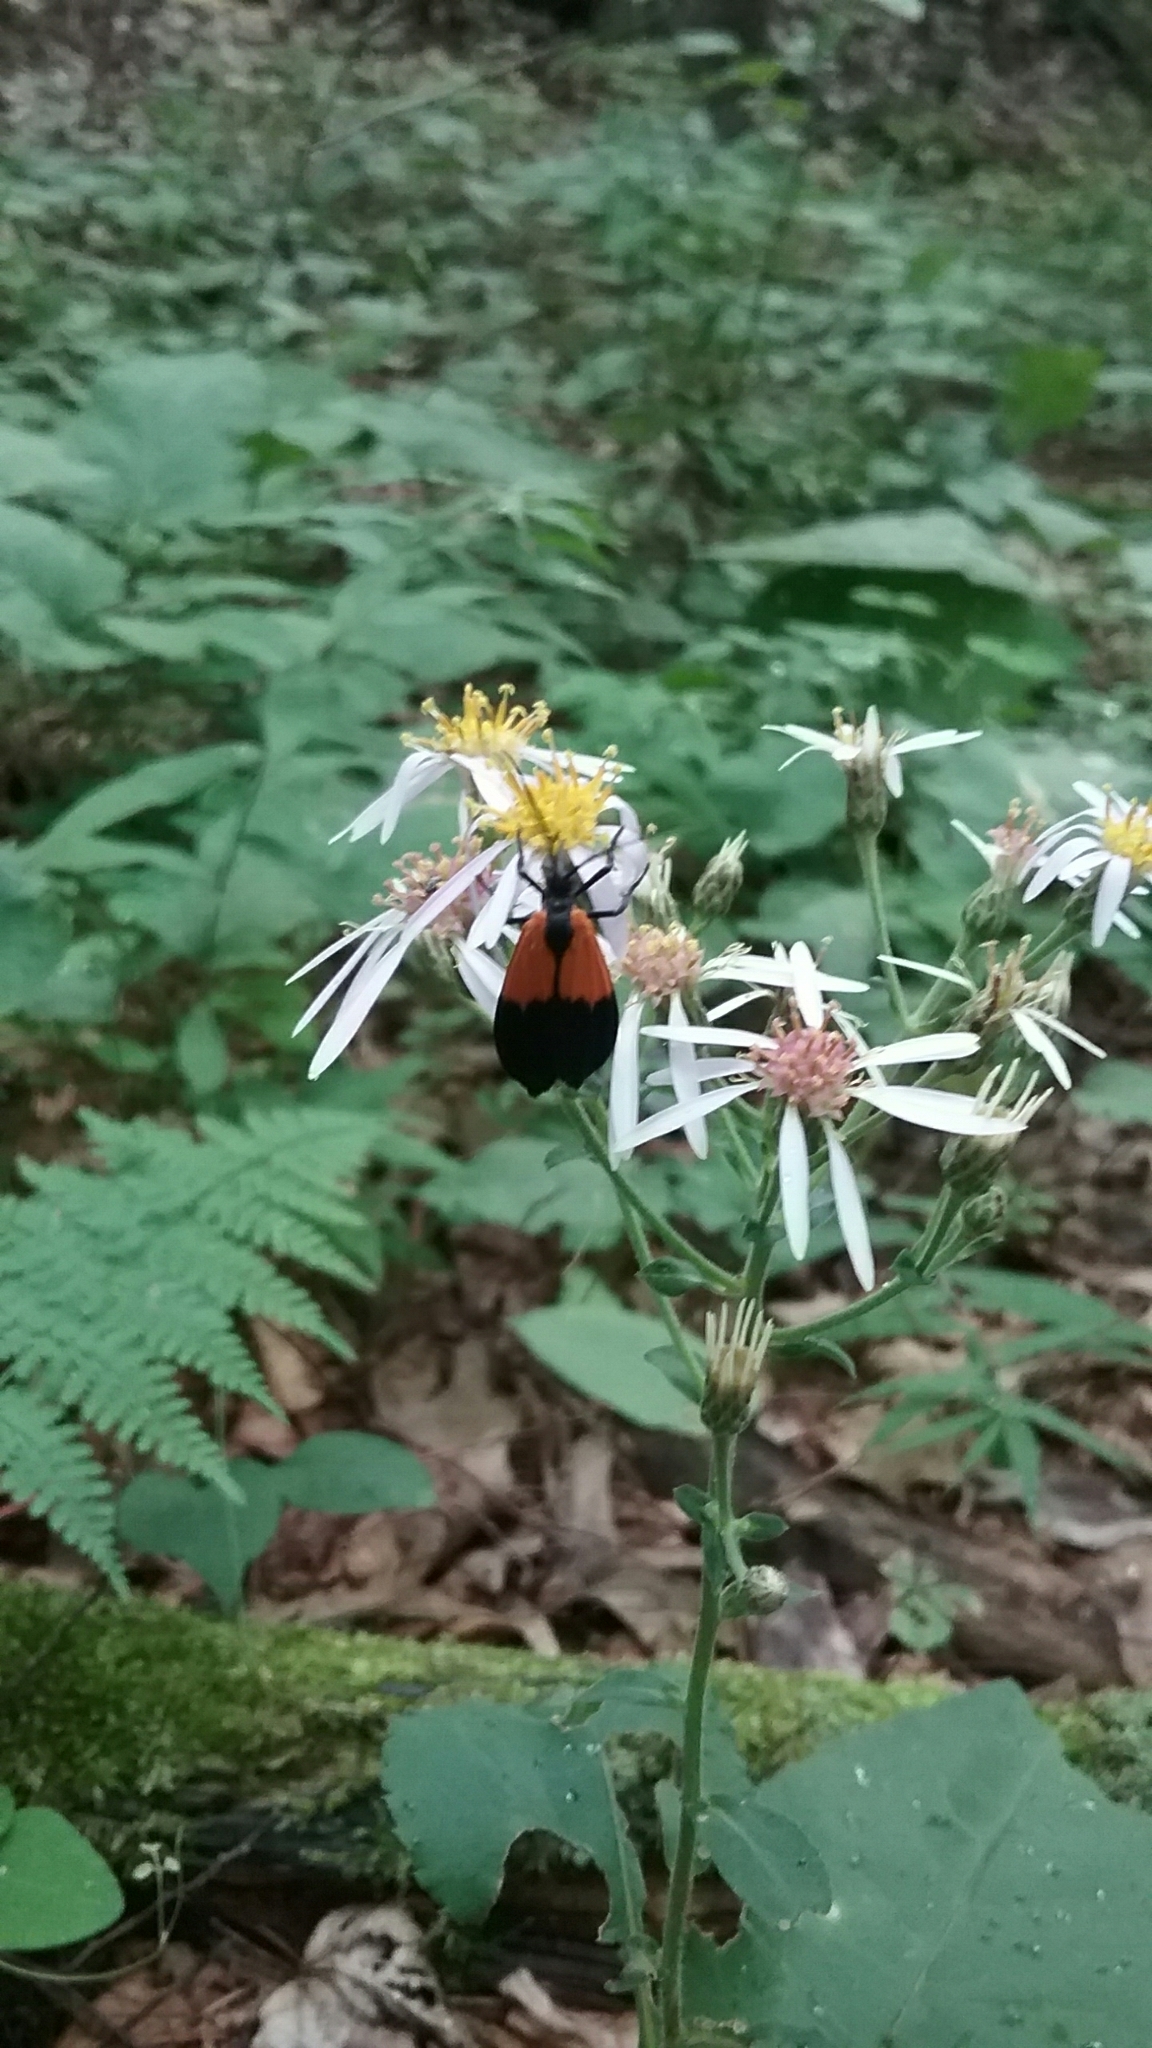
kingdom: Animalia
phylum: Arthropoda
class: Insecta
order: Lepidoptera
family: Erebidae
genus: Lycomorpha
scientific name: Lycomorpha pholus
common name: Black-and-yellow lichen moth
